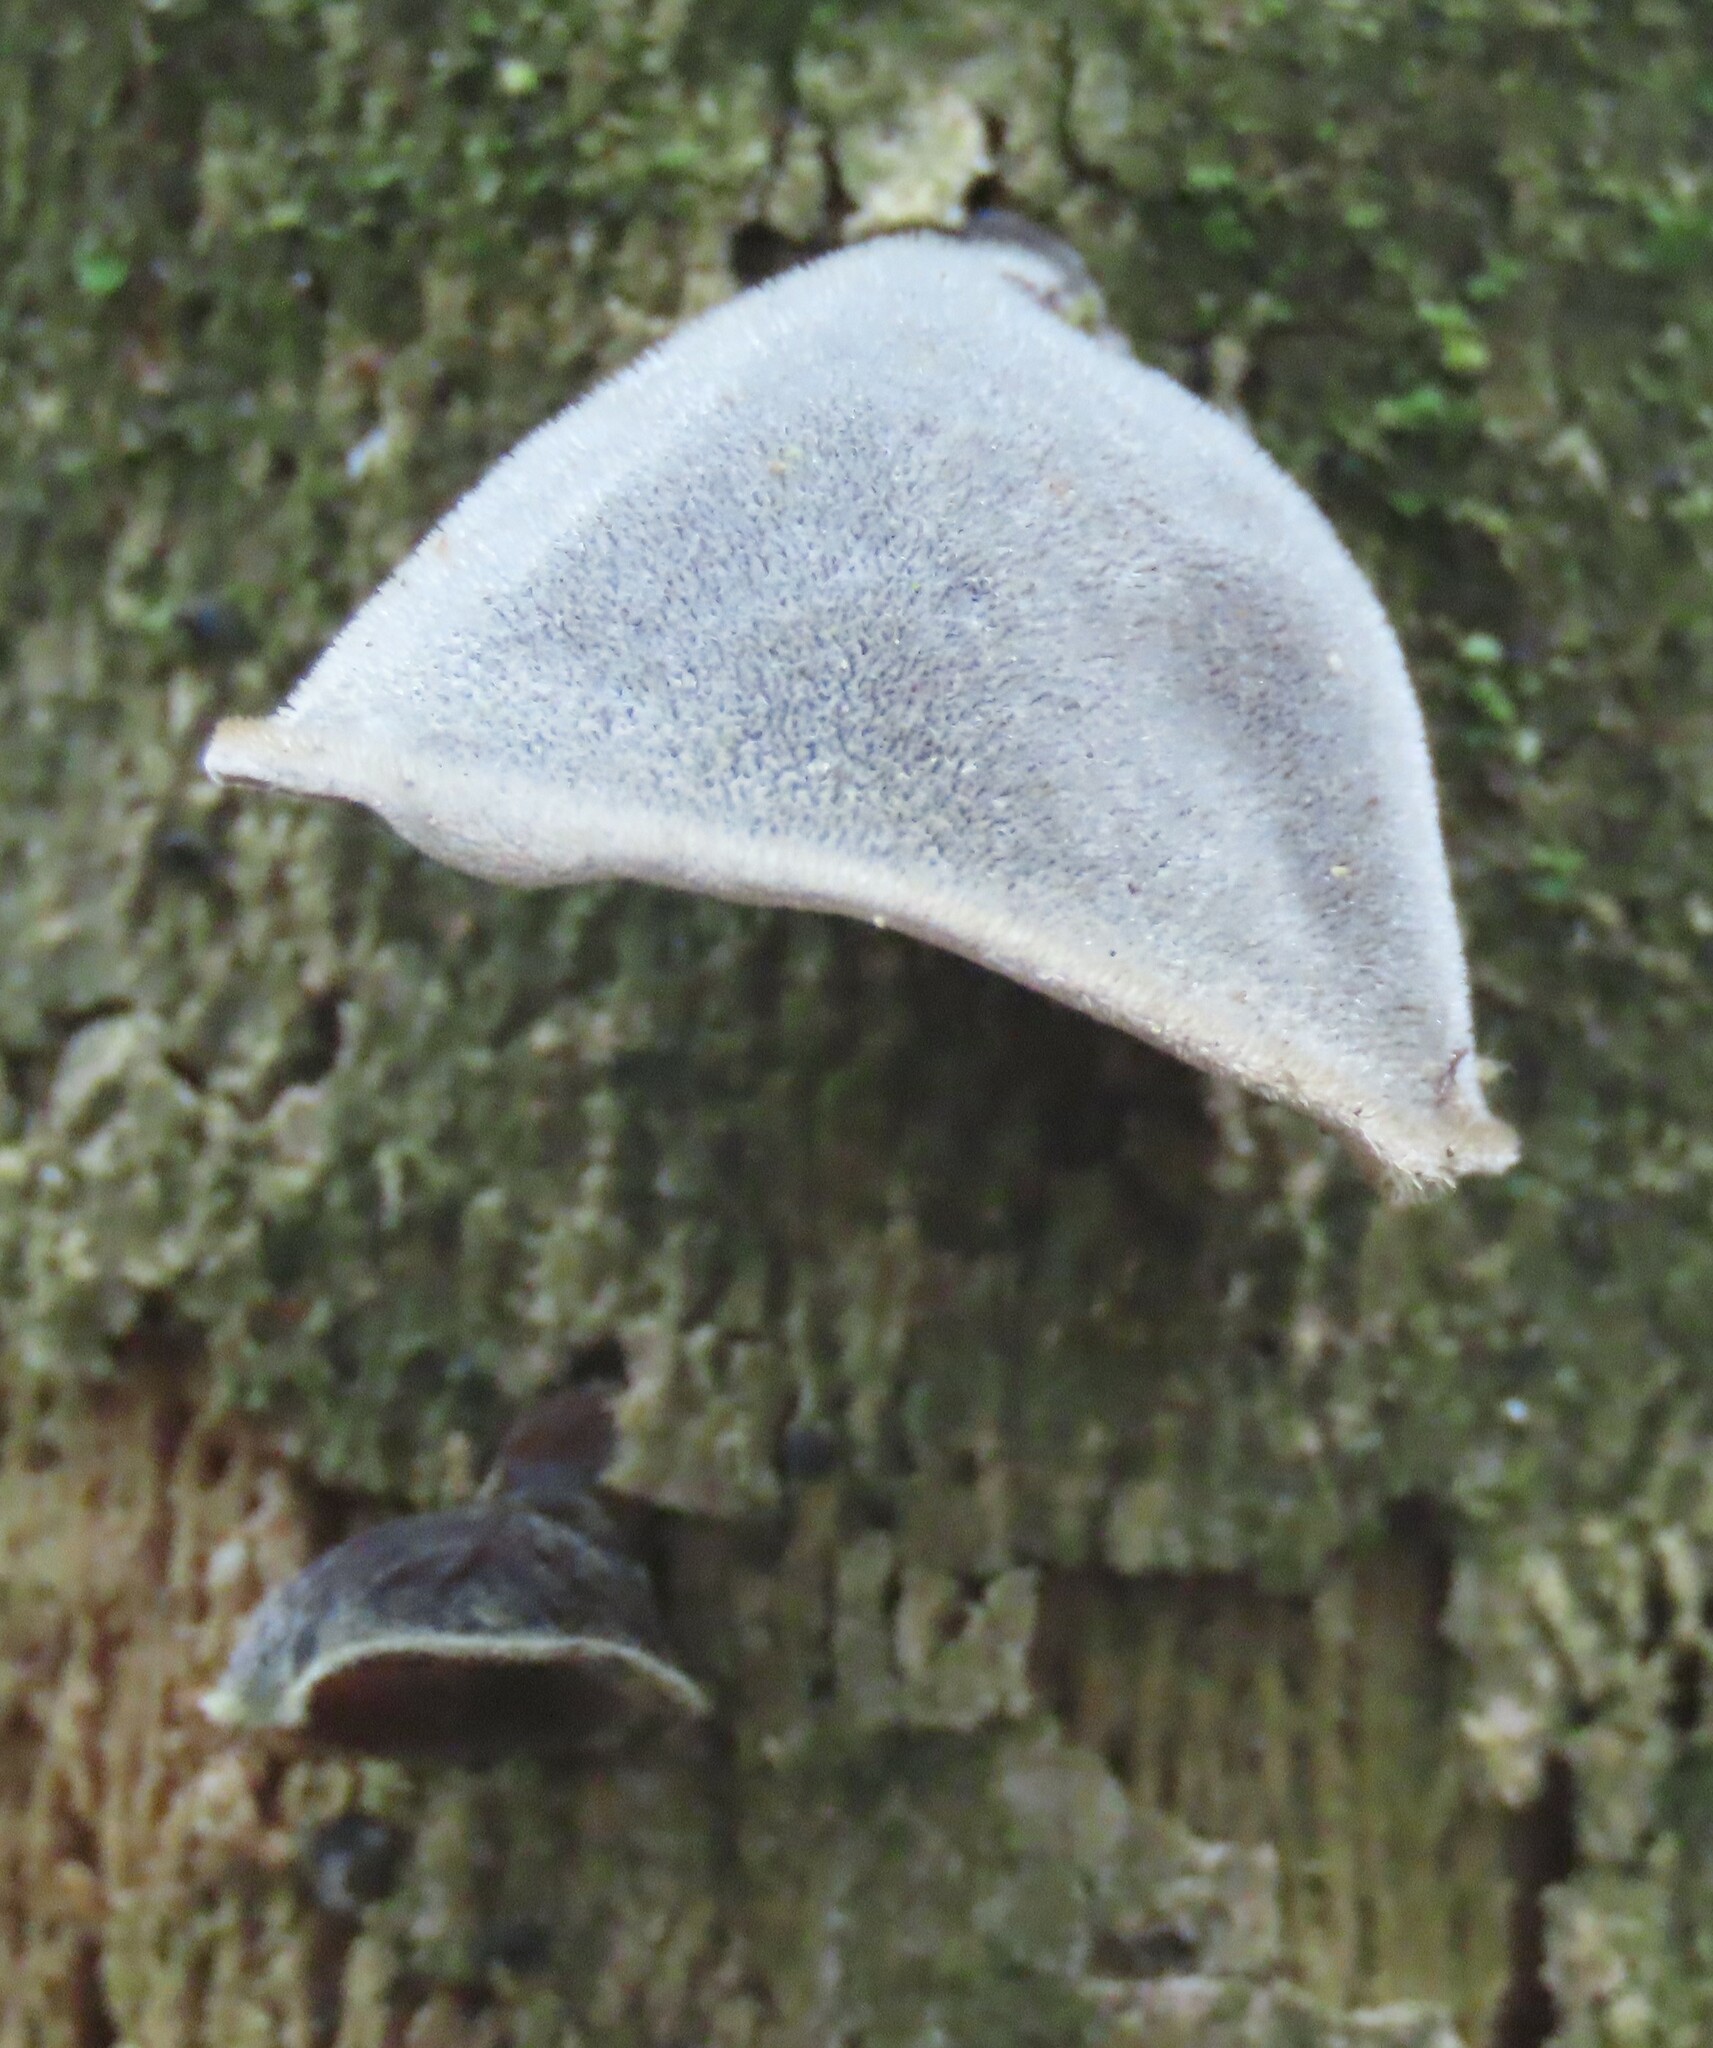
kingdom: Fungi
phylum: Basidiomycota
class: Agaricomycetes
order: Auriculariales
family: Auriculariaceae
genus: Auricularia
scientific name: Auricularia cornea
